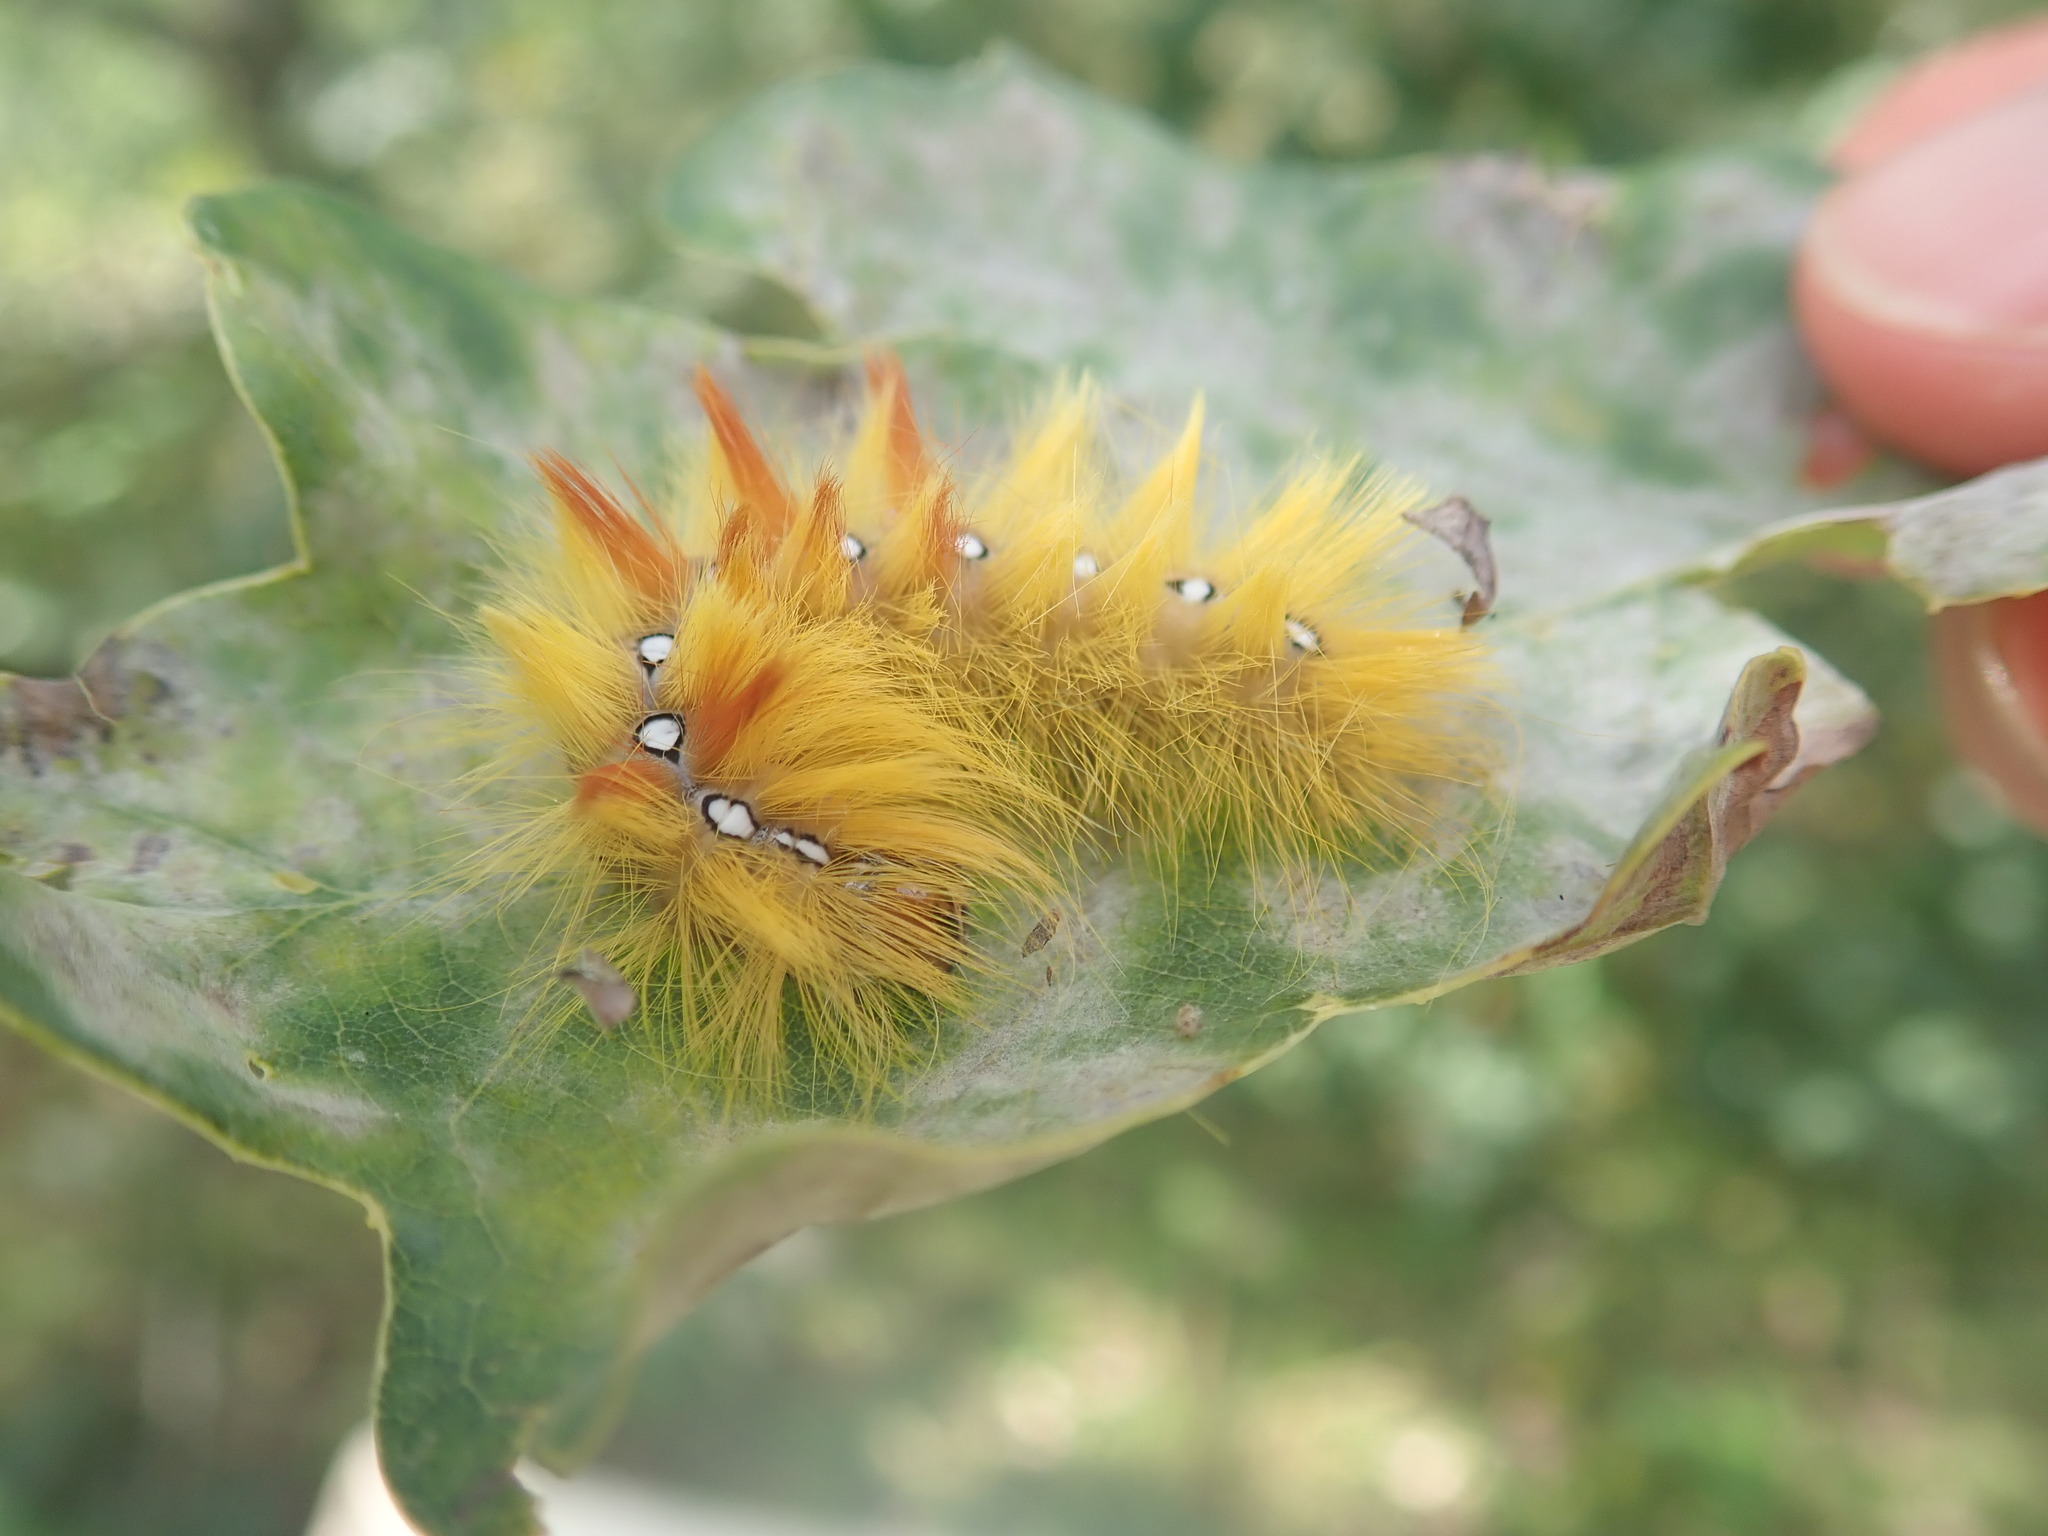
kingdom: Animalia
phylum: Arthropoda
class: Insecta
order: Lepidoptera
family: Noctuidae
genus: Acronicta
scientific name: Acronicta aceris
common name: Sycamore
